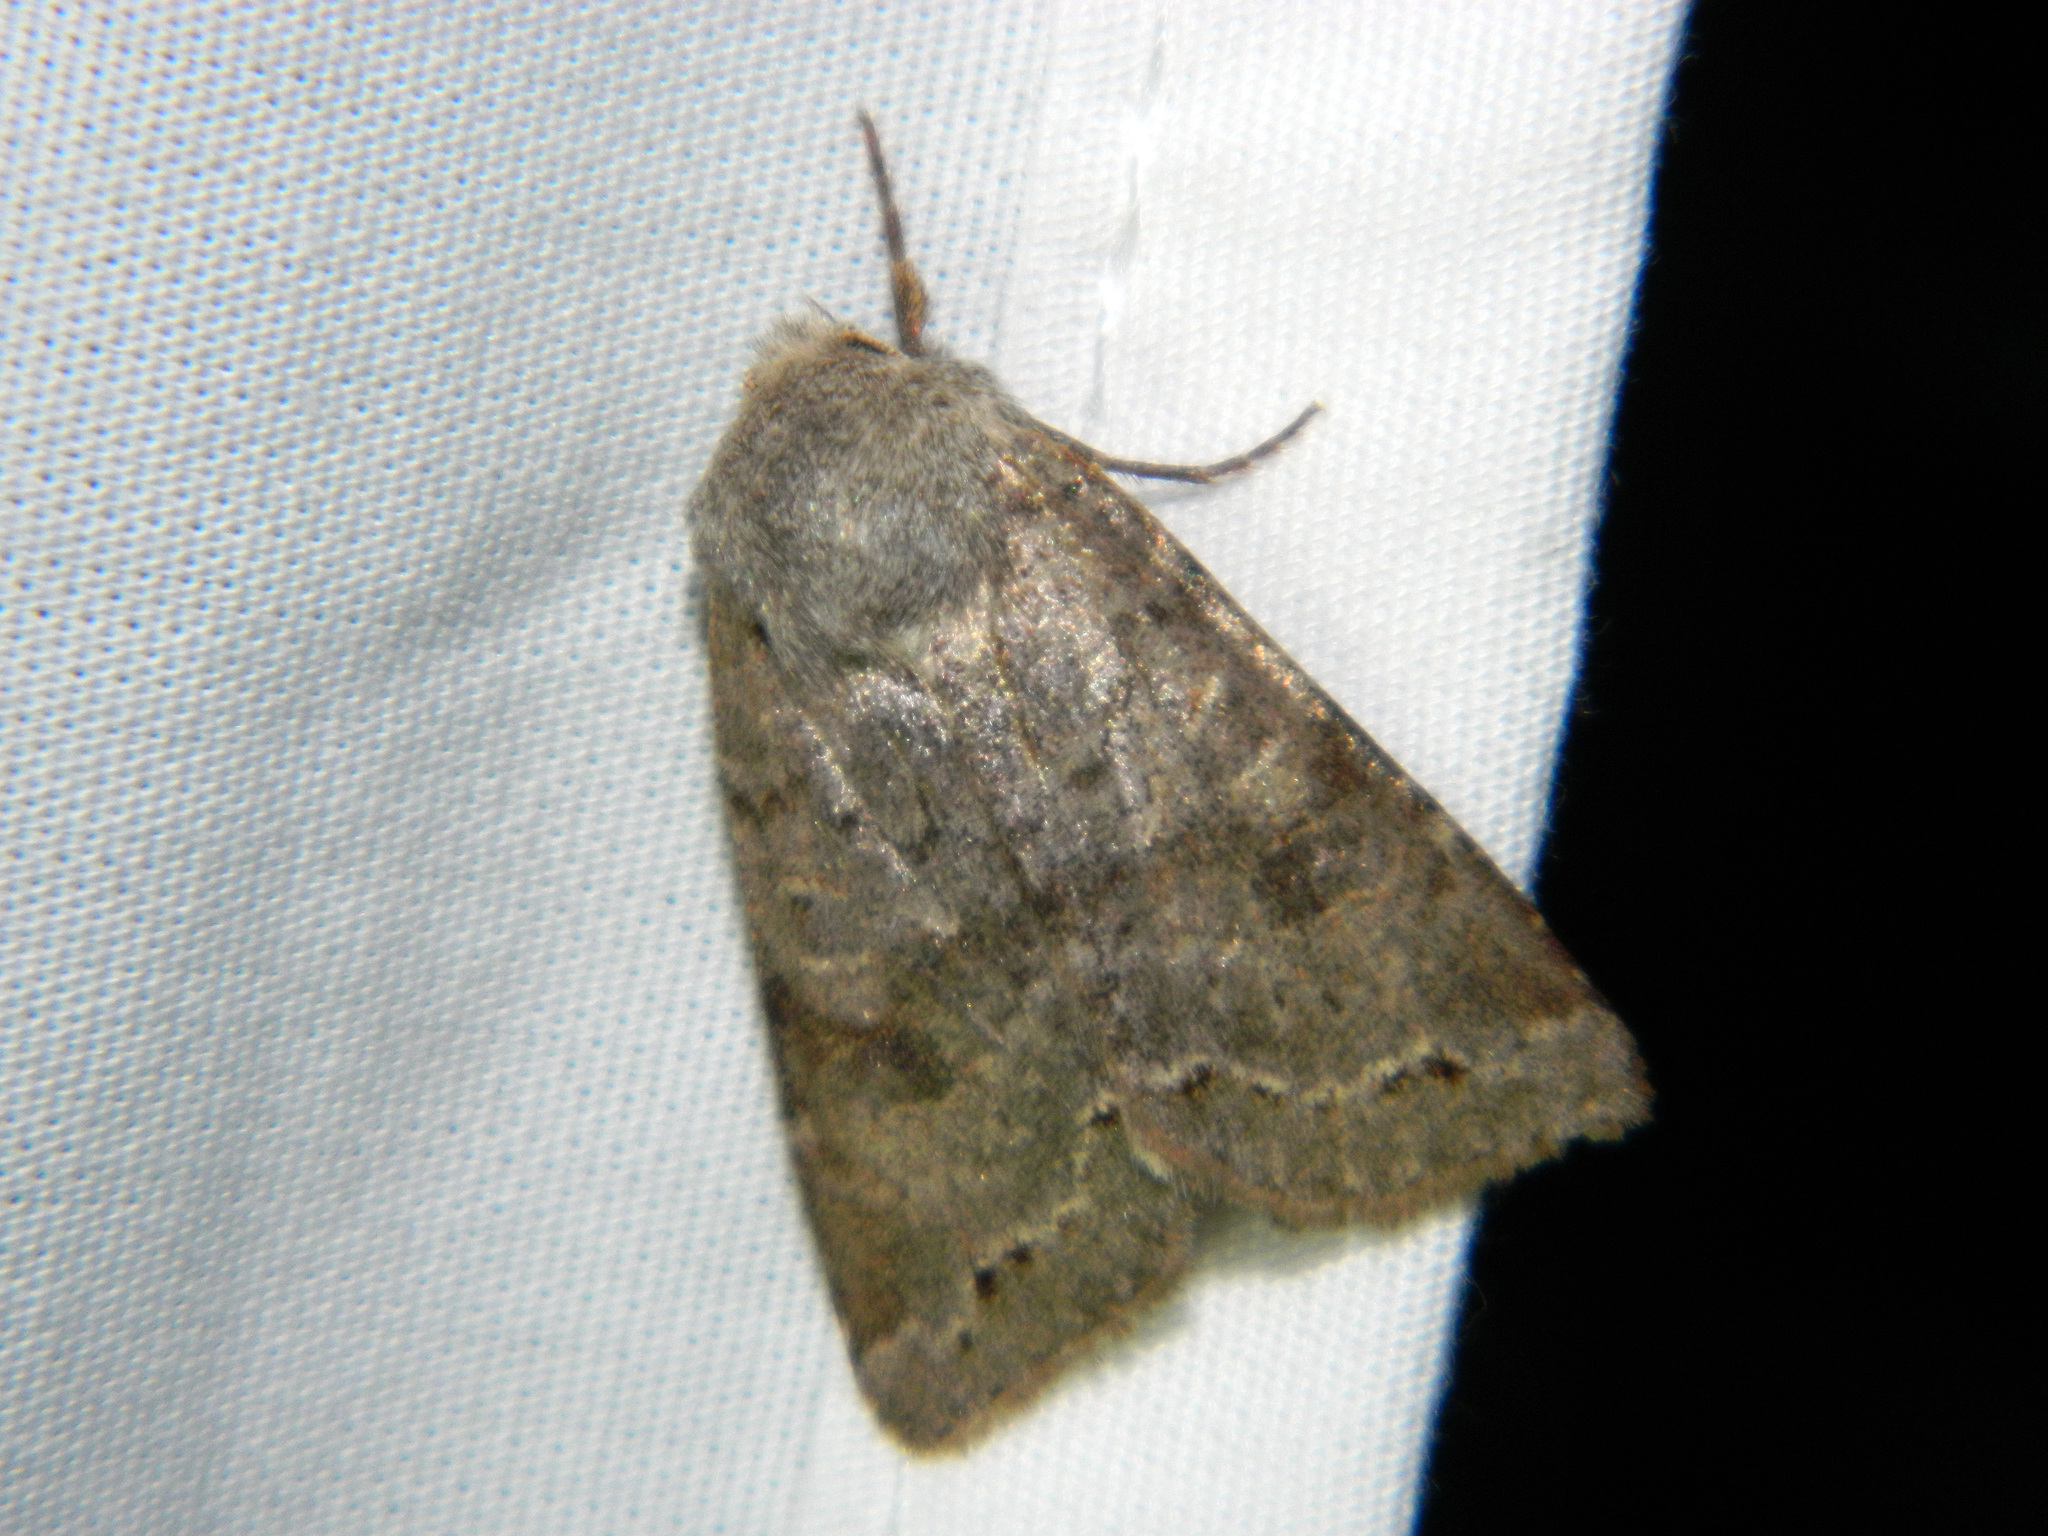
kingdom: Animalia
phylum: Arthropoda
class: Insecta
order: Lepidoptera
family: Noctuidae
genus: Orthosia
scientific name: Orthosia hibisci
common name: Green fruitworm
